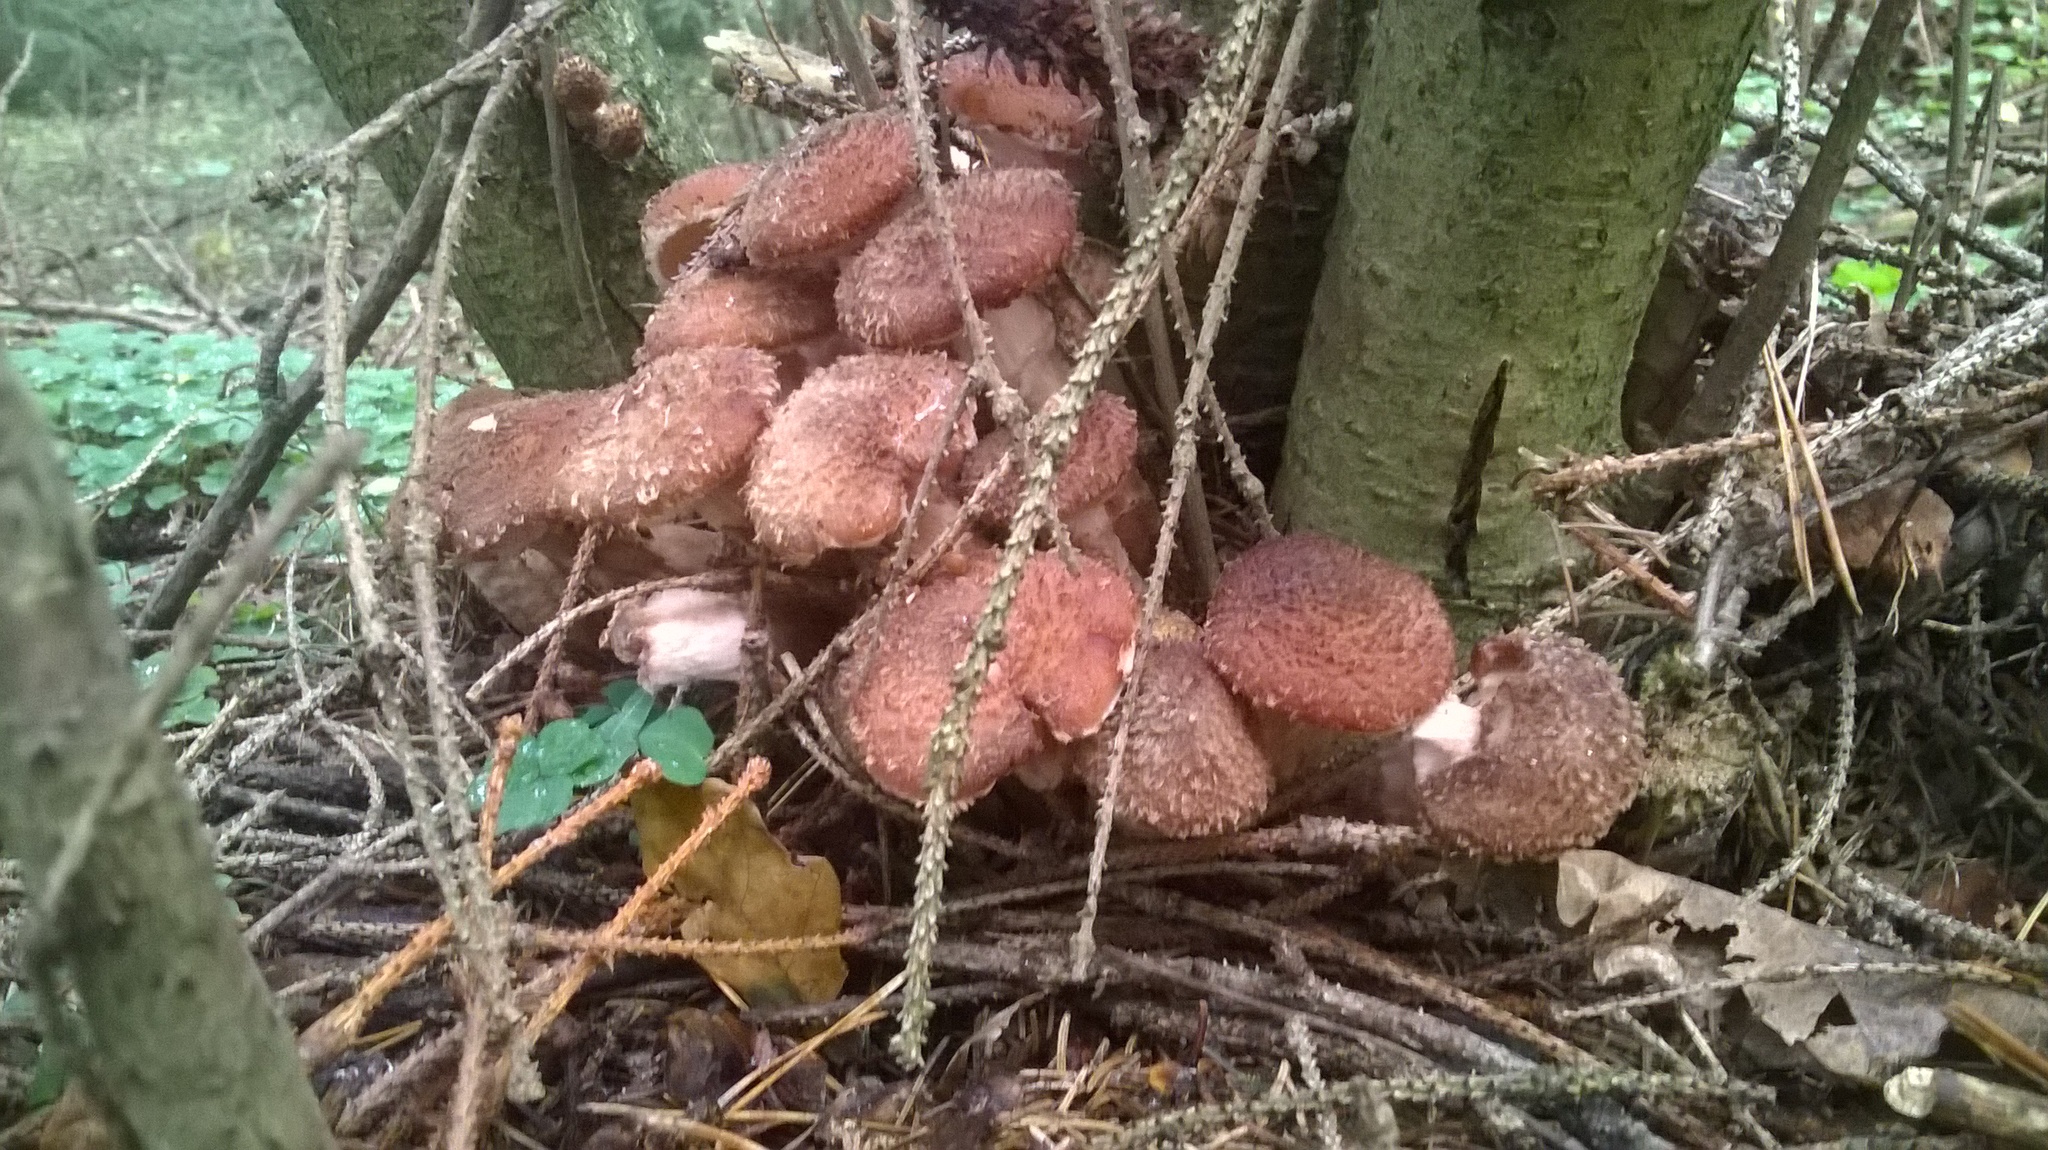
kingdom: Fungi
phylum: Basidiomycota
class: Agaricomycetes
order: Agaricales
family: Physalacriaceae
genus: Armillaria
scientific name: Armillaria ostoyae
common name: Dark honey fungus
